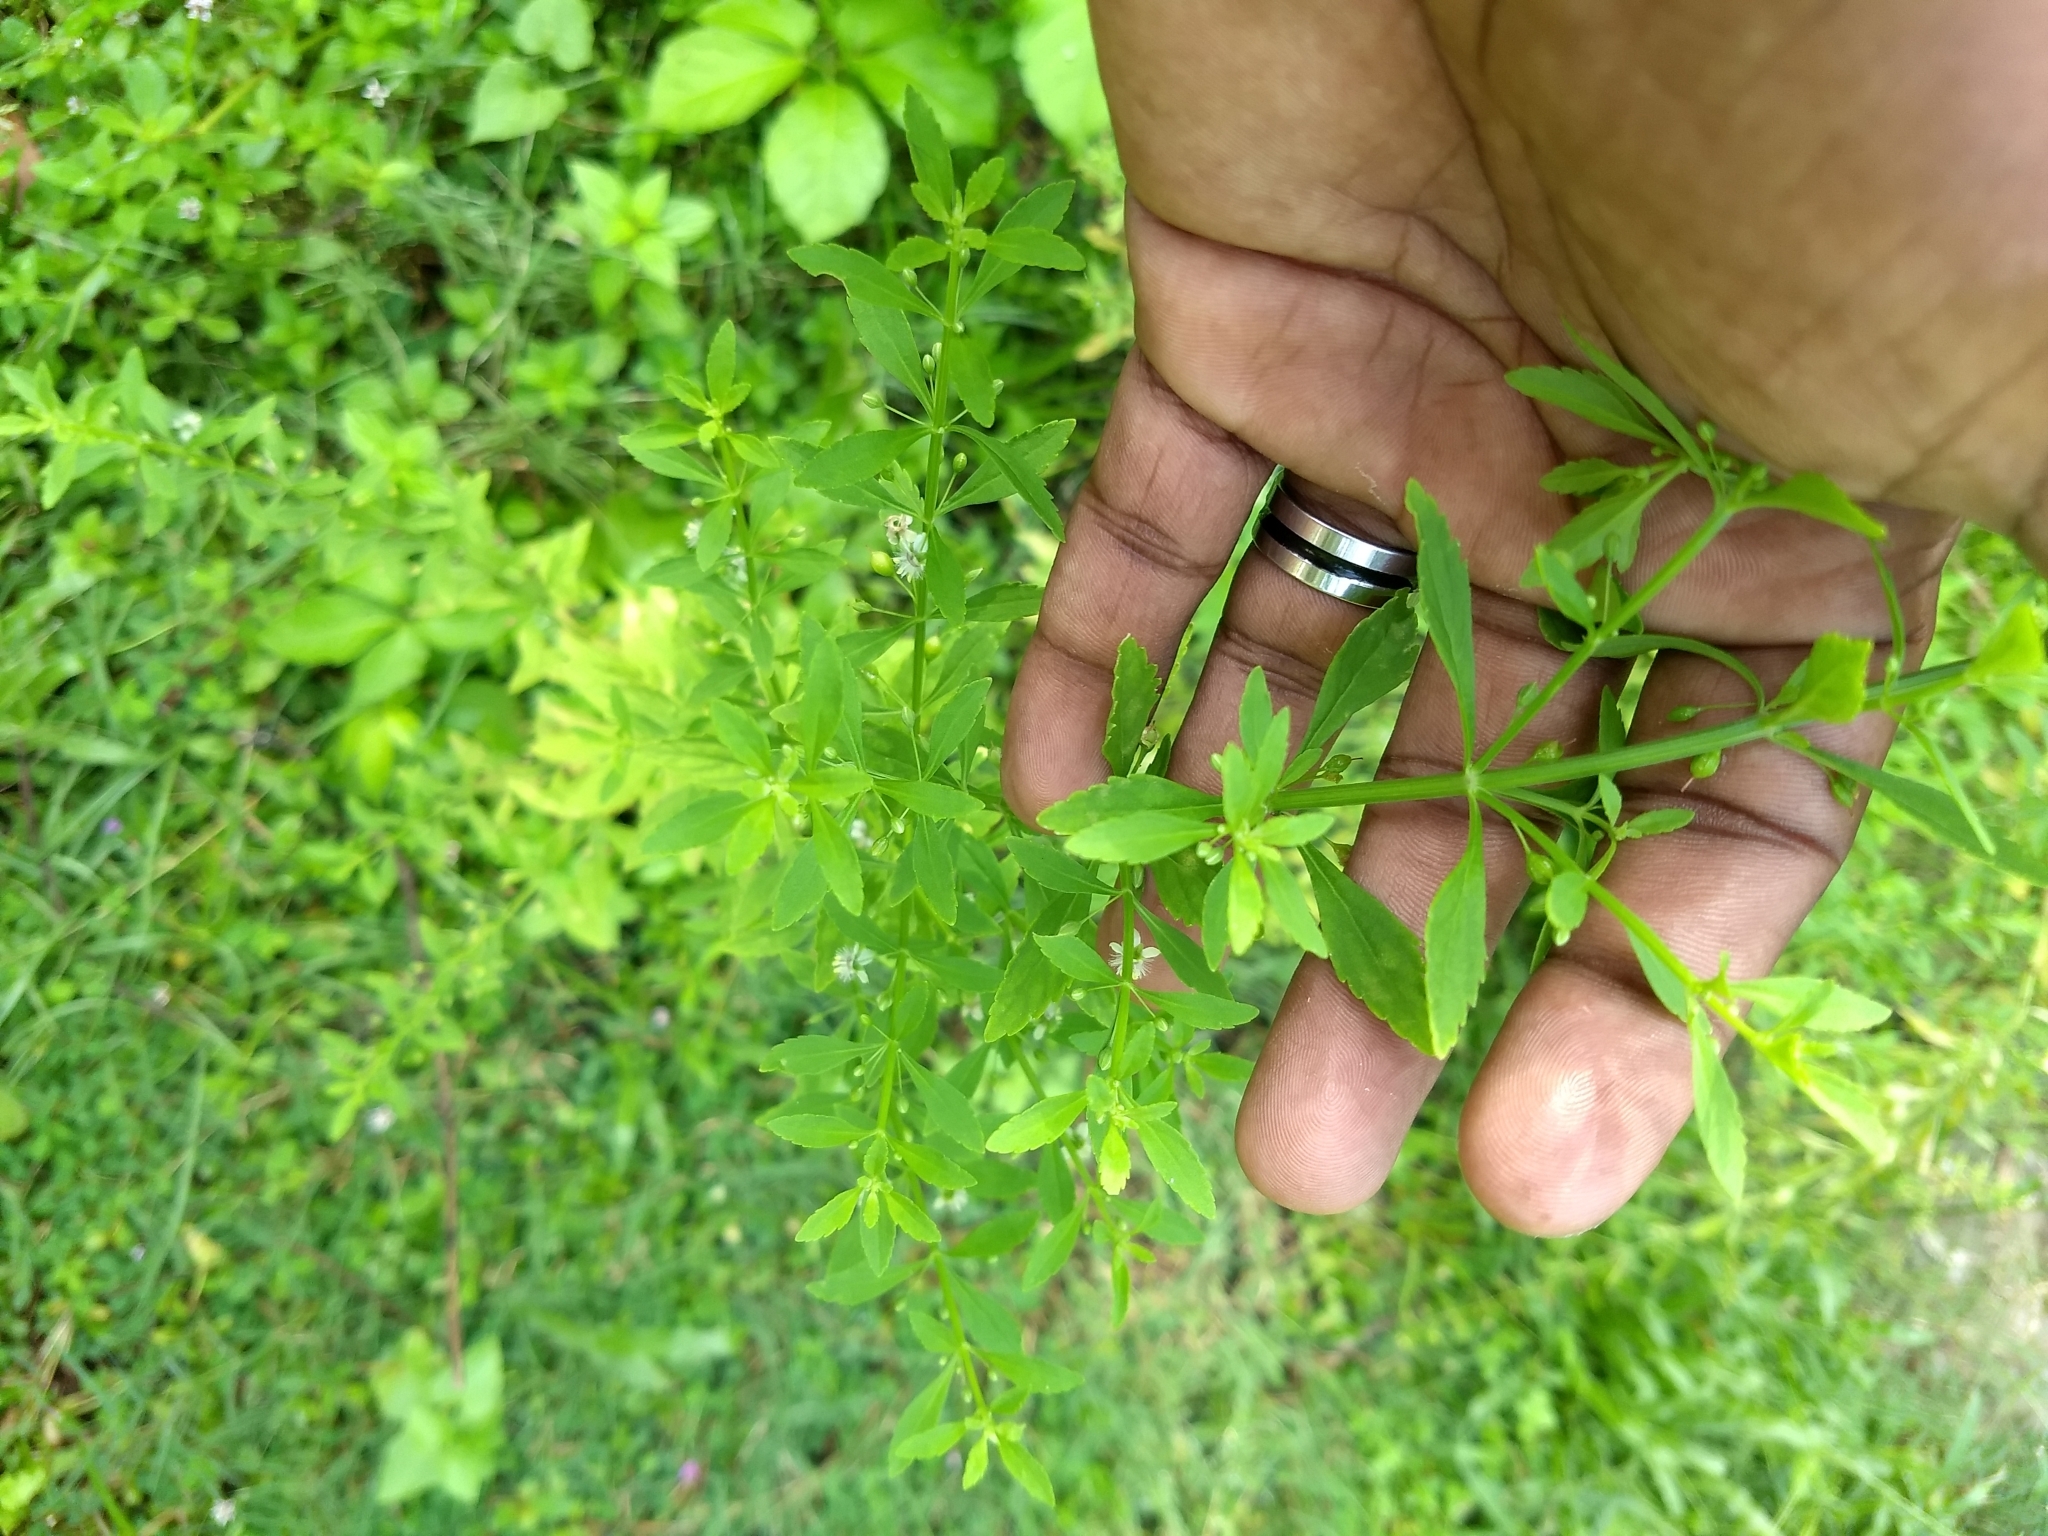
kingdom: Plantae
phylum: Tracheophyta
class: Magnoliopsida
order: Lamiales
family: Plantaginaceae
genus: Scoparia
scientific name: Scoparia dulcis
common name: Scoparia-weed
